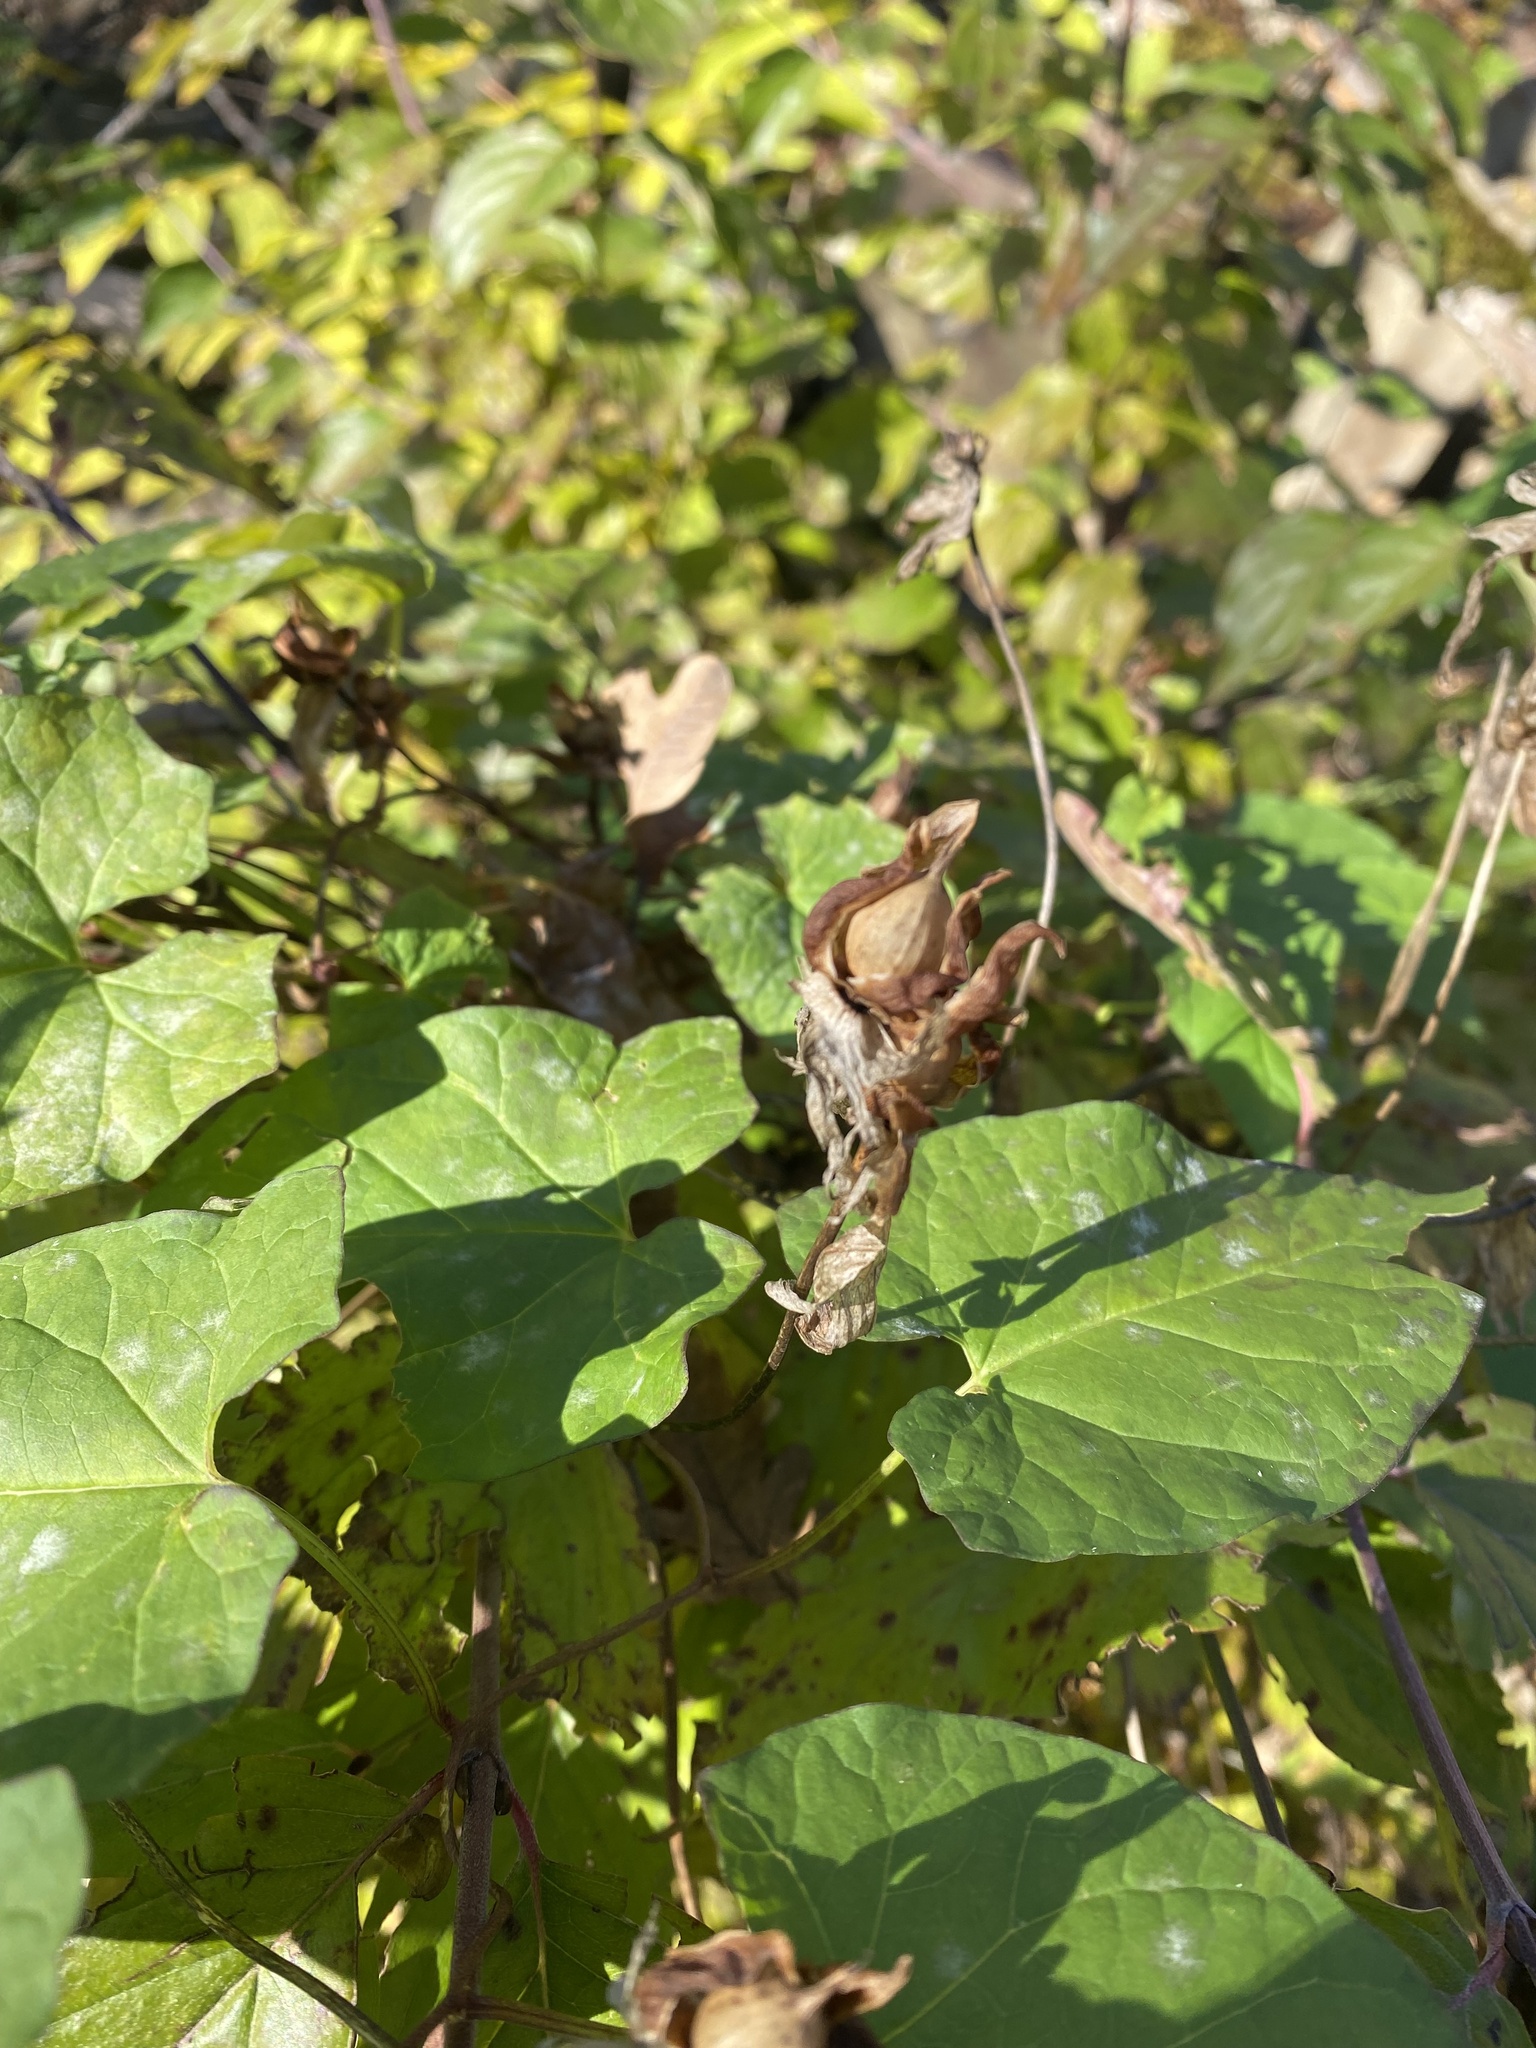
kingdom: Plantae
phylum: Tracheophyta
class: Magnoliopsida
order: Solanales
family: Convolvulaceae
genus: Calystegia
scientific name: Calystegia silvatica
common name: Large bindweed
